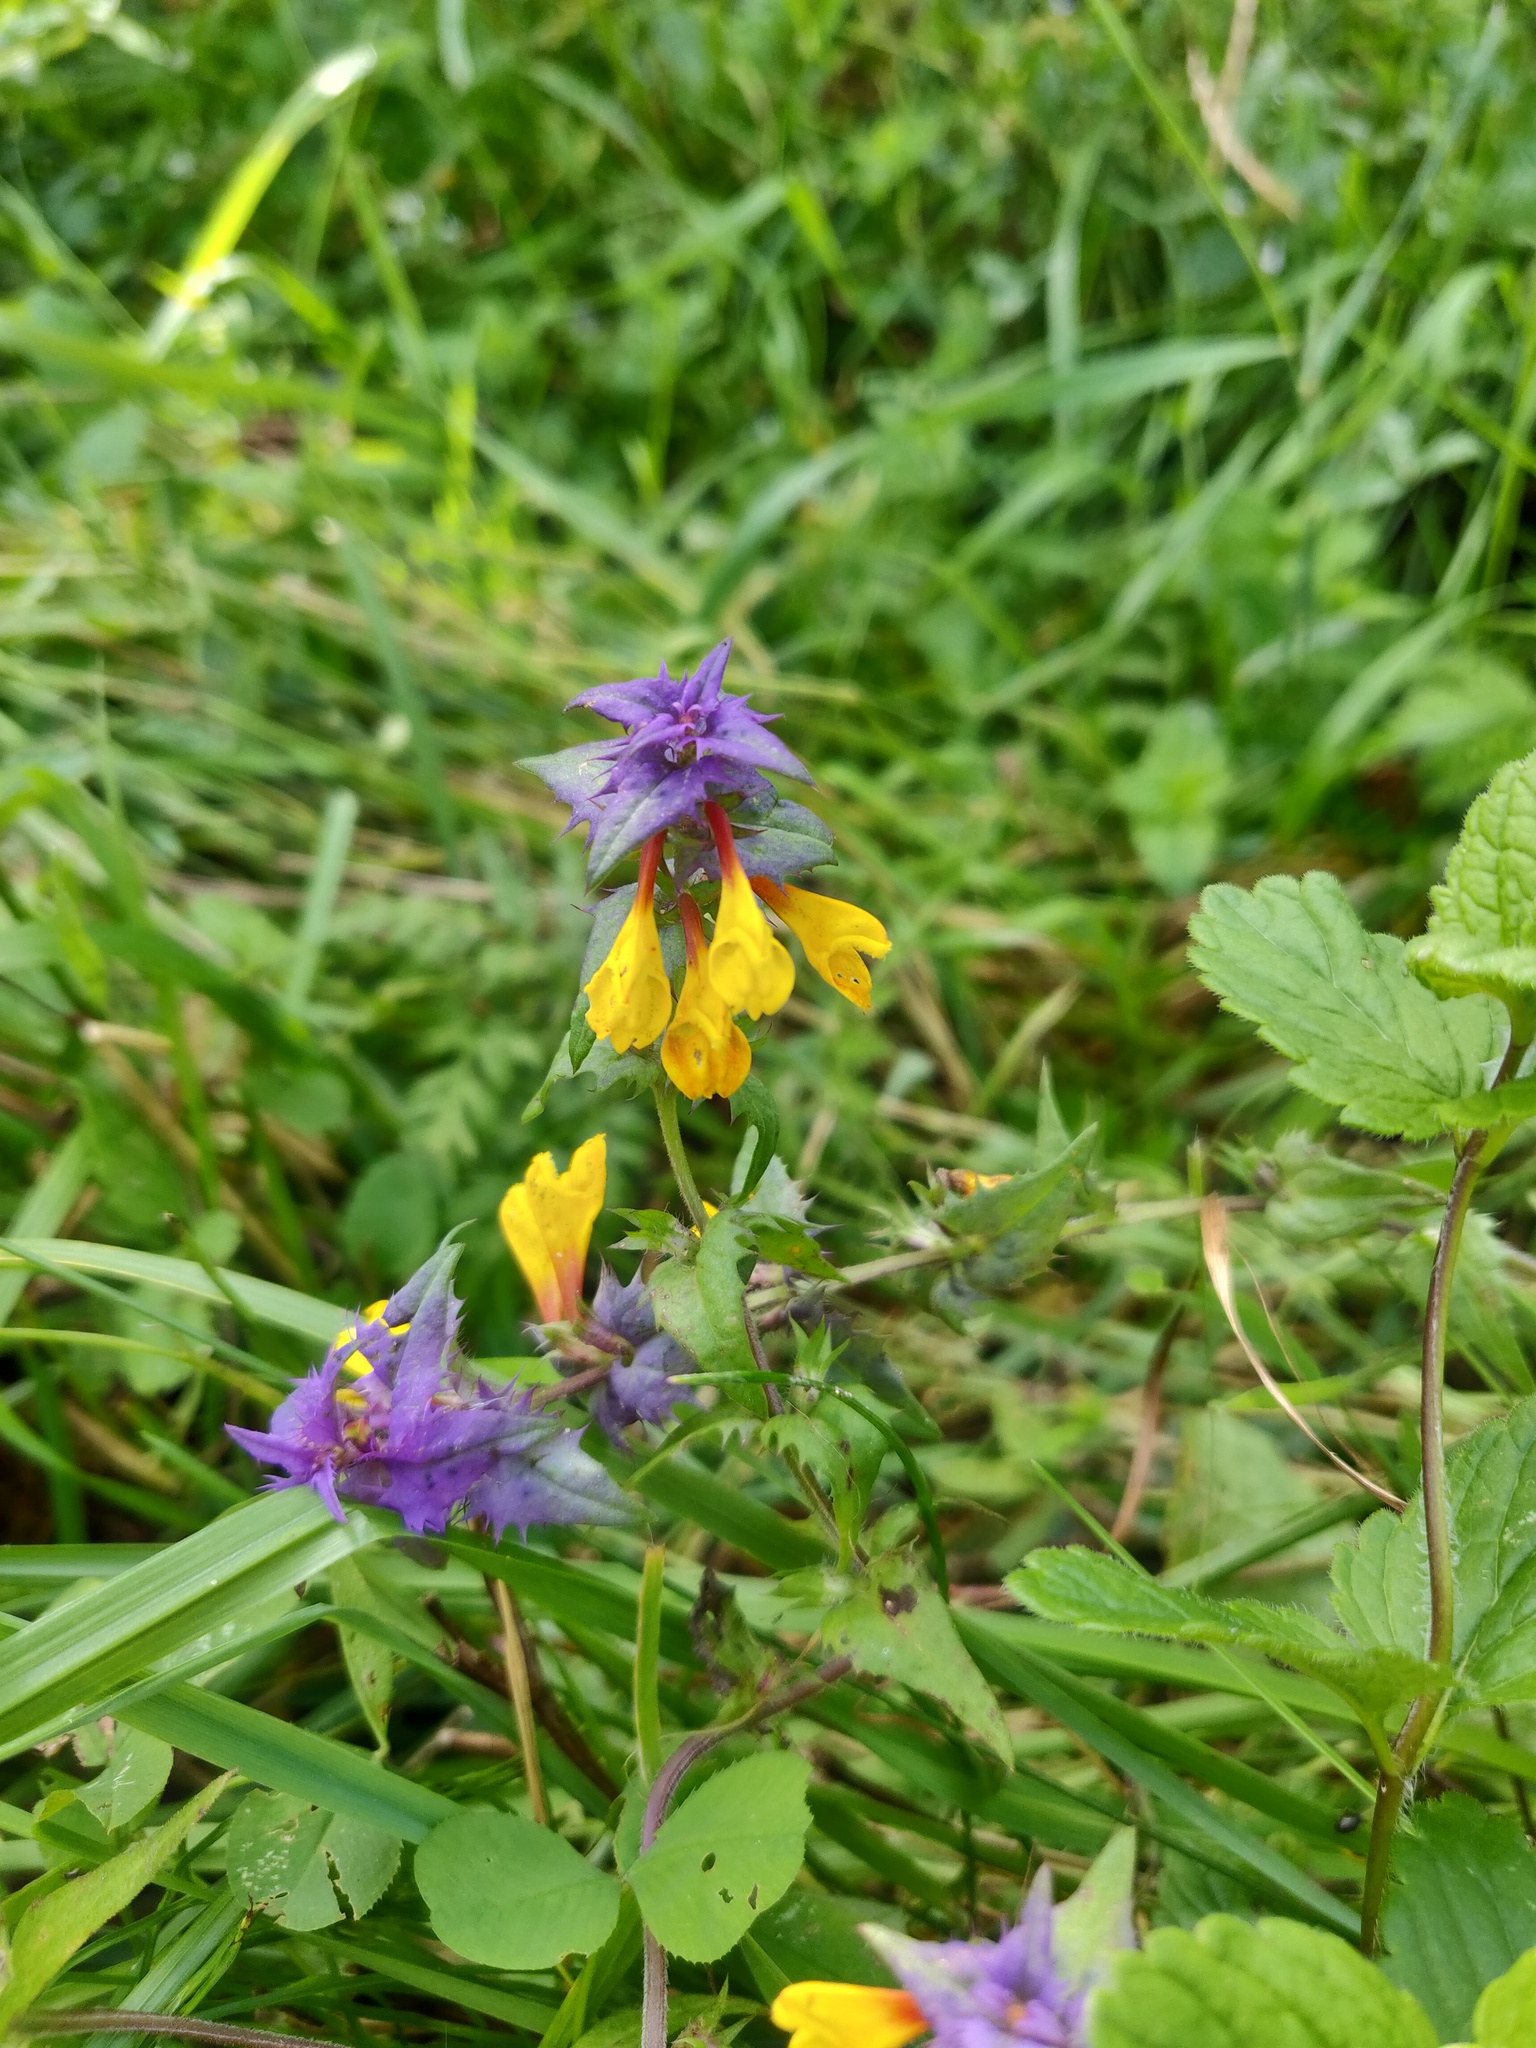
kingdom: Plantae
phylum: Tracheophyta
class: Magnoliopsida
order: Rosales
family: Urticaceae
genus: Urtica
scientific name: Urtica dioica
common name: Common nettle
